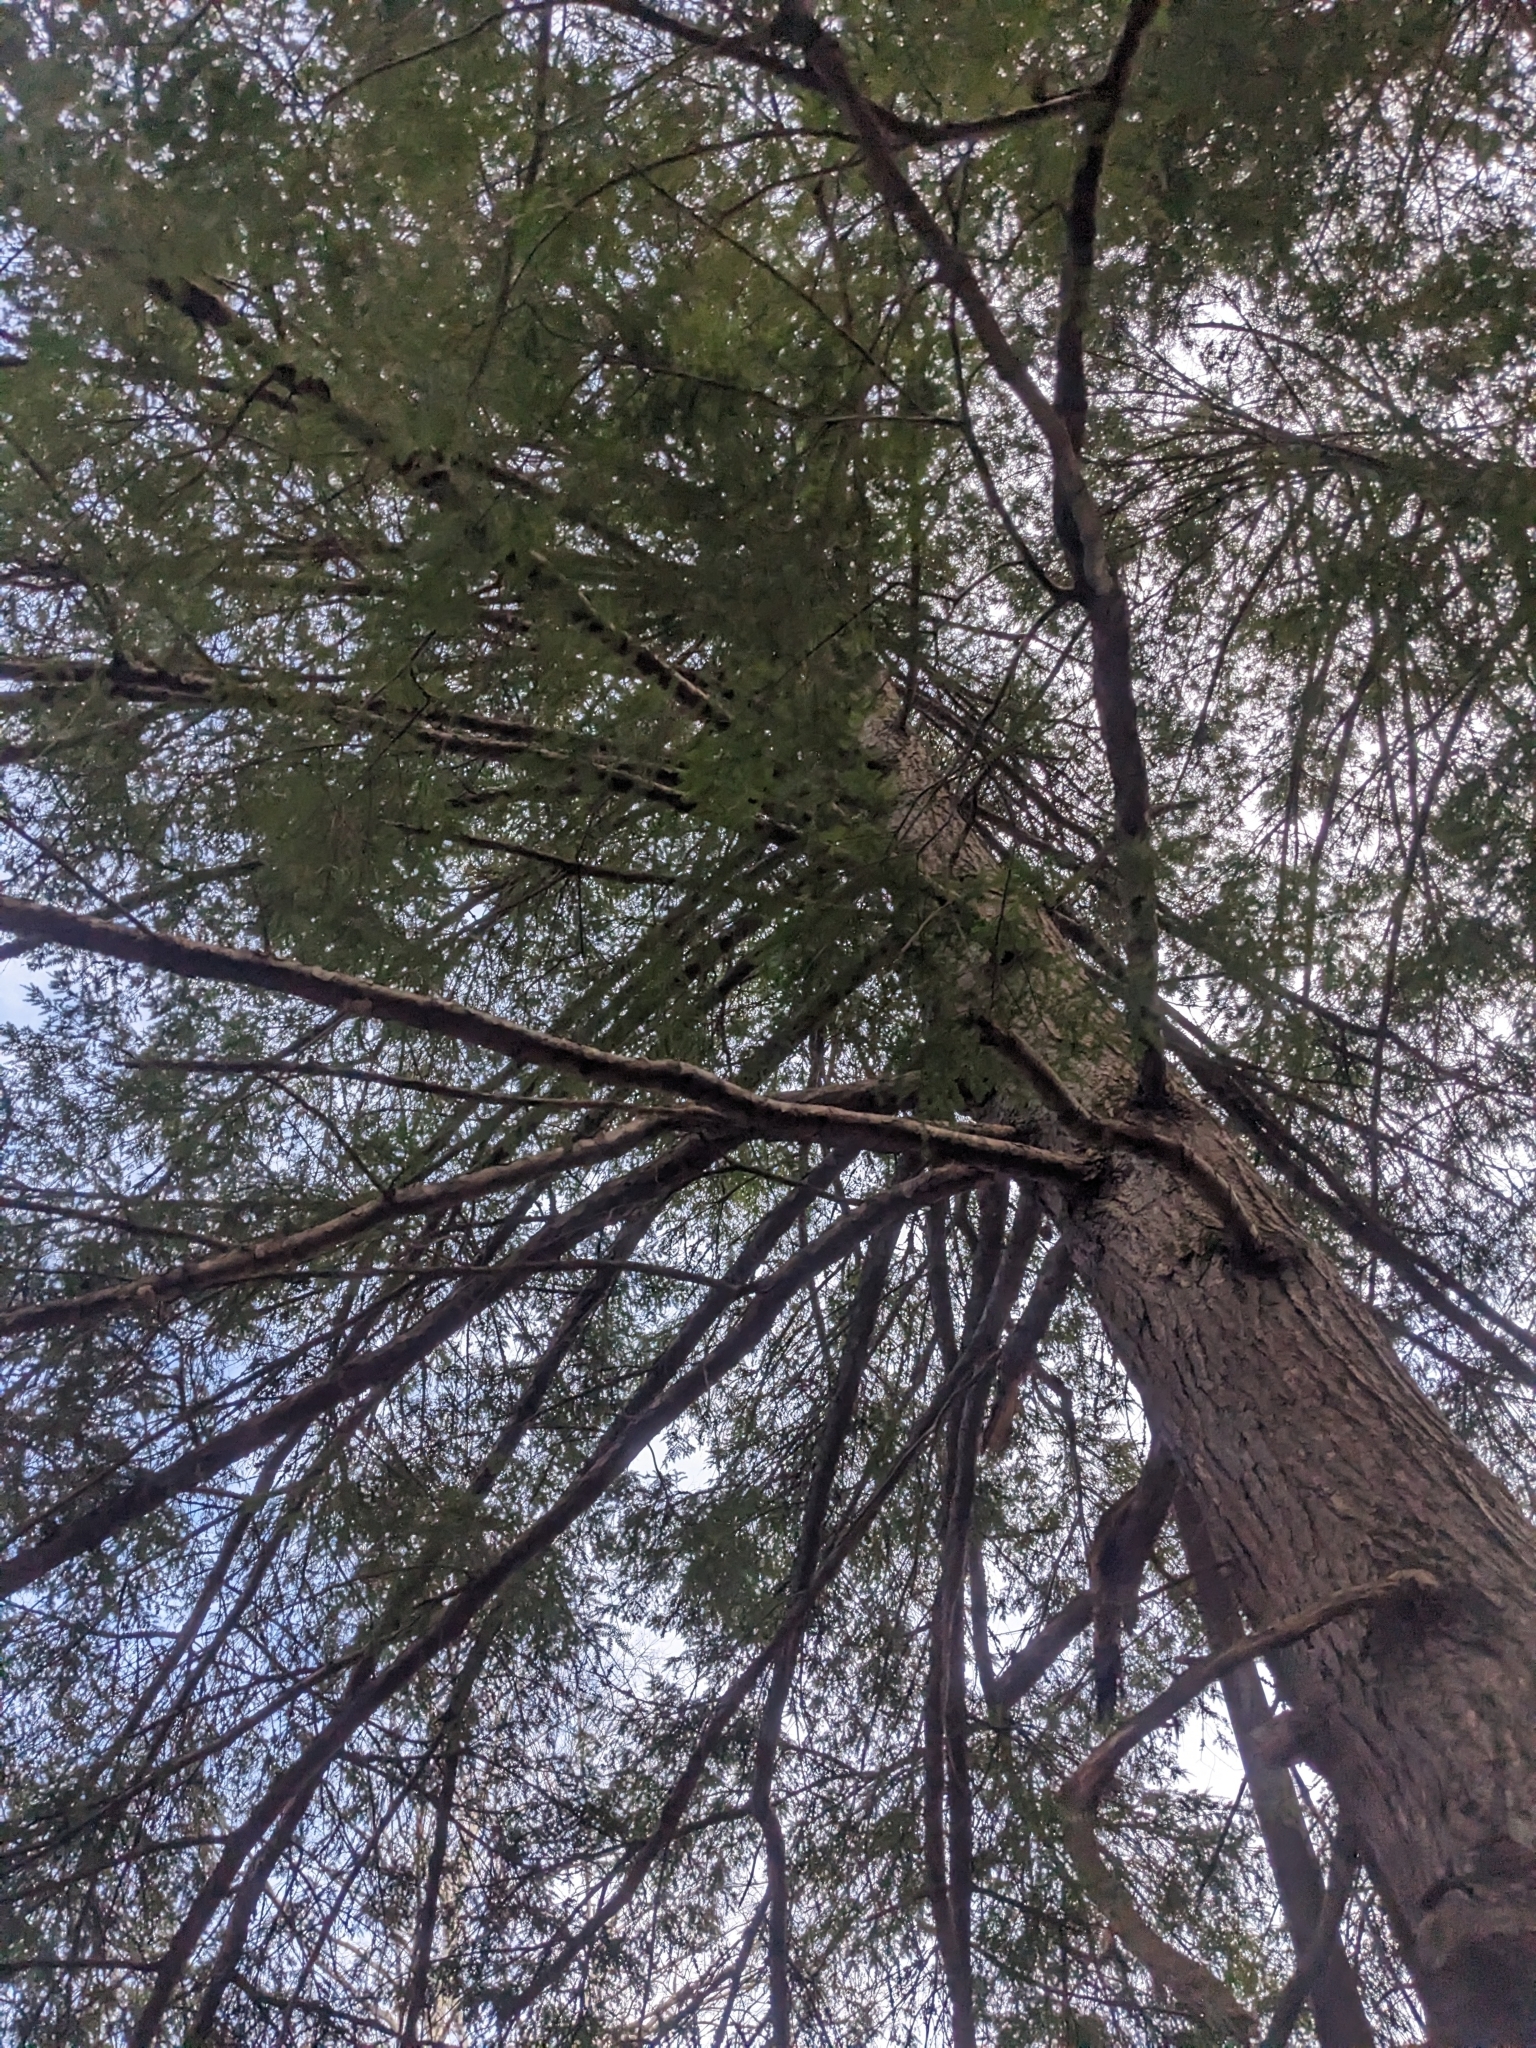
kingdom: Plantae
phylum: Tracheophyta
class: Pinopsida
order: Pinales
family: Pinaceae
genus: Tsuga
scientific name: Tsuga canadensis
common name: Eastern hemlock
